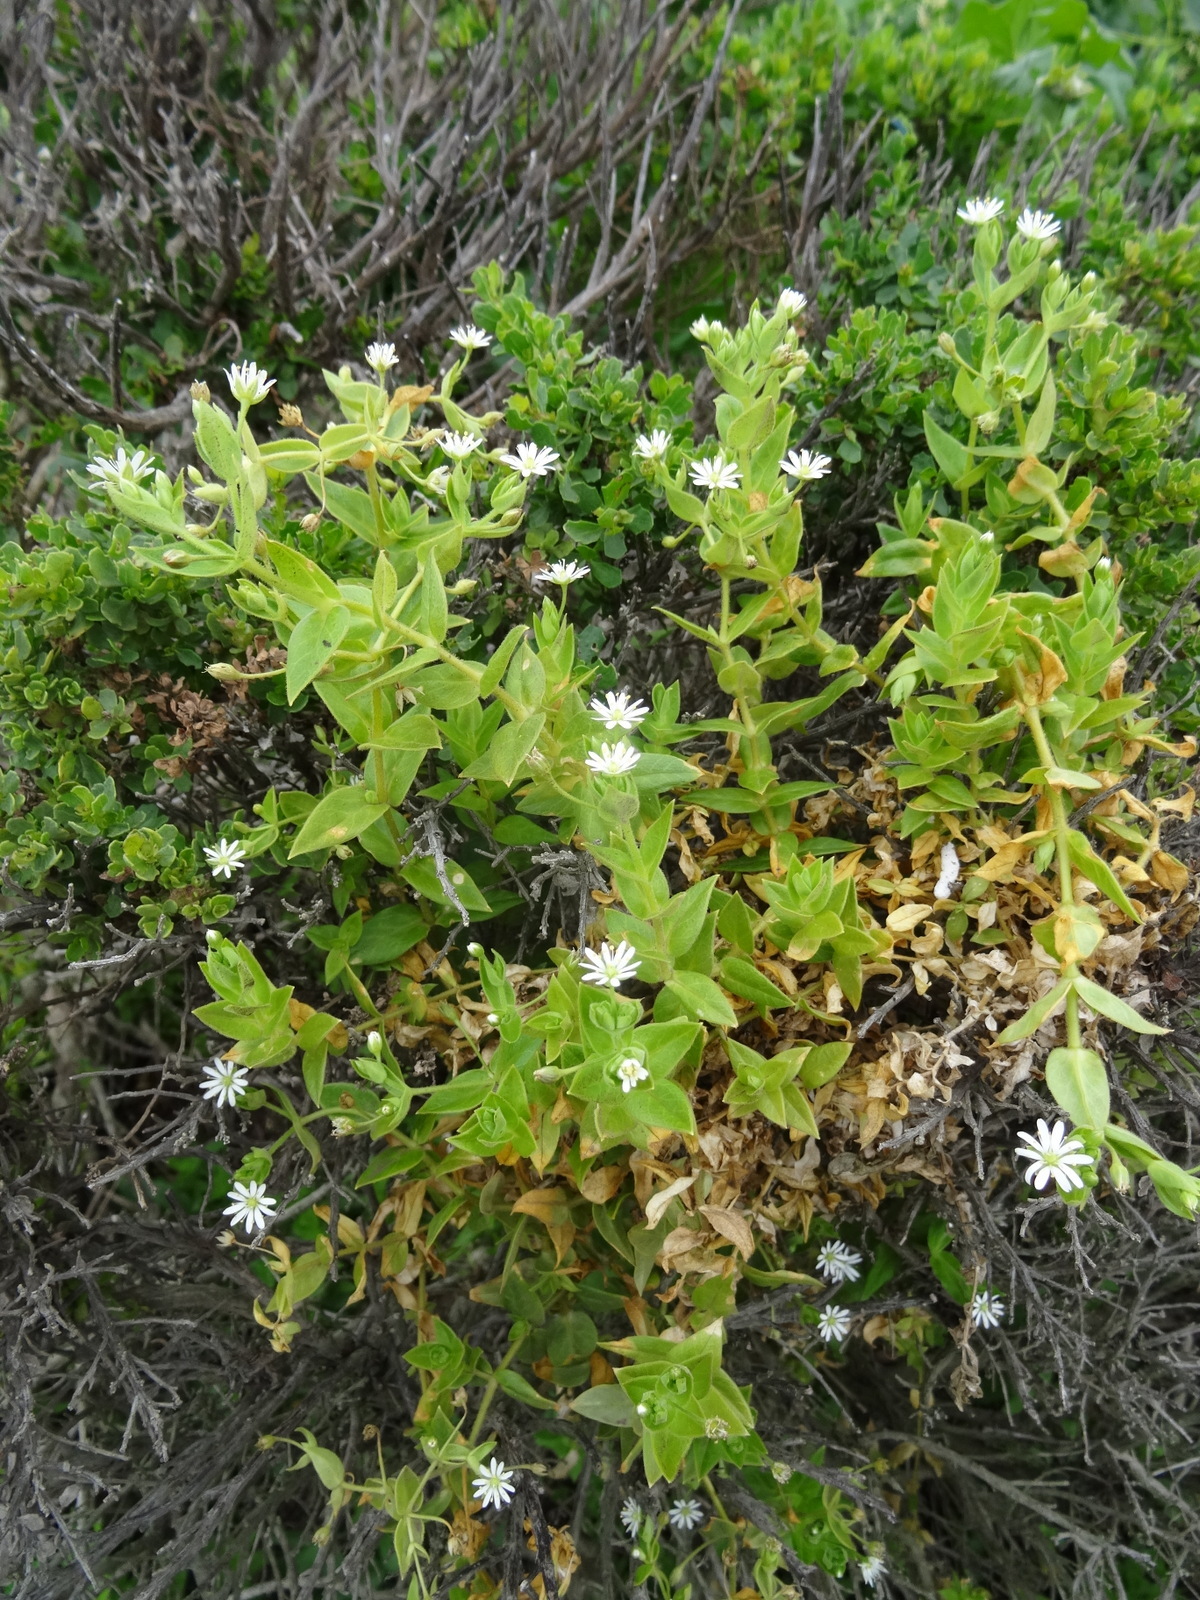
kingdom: Plantae
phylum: Tracheophyta
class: Magnoliopsida
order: Caryophyllales
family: Caryophyllaceae
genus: Stellaria
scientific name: Stellaria littoralis
